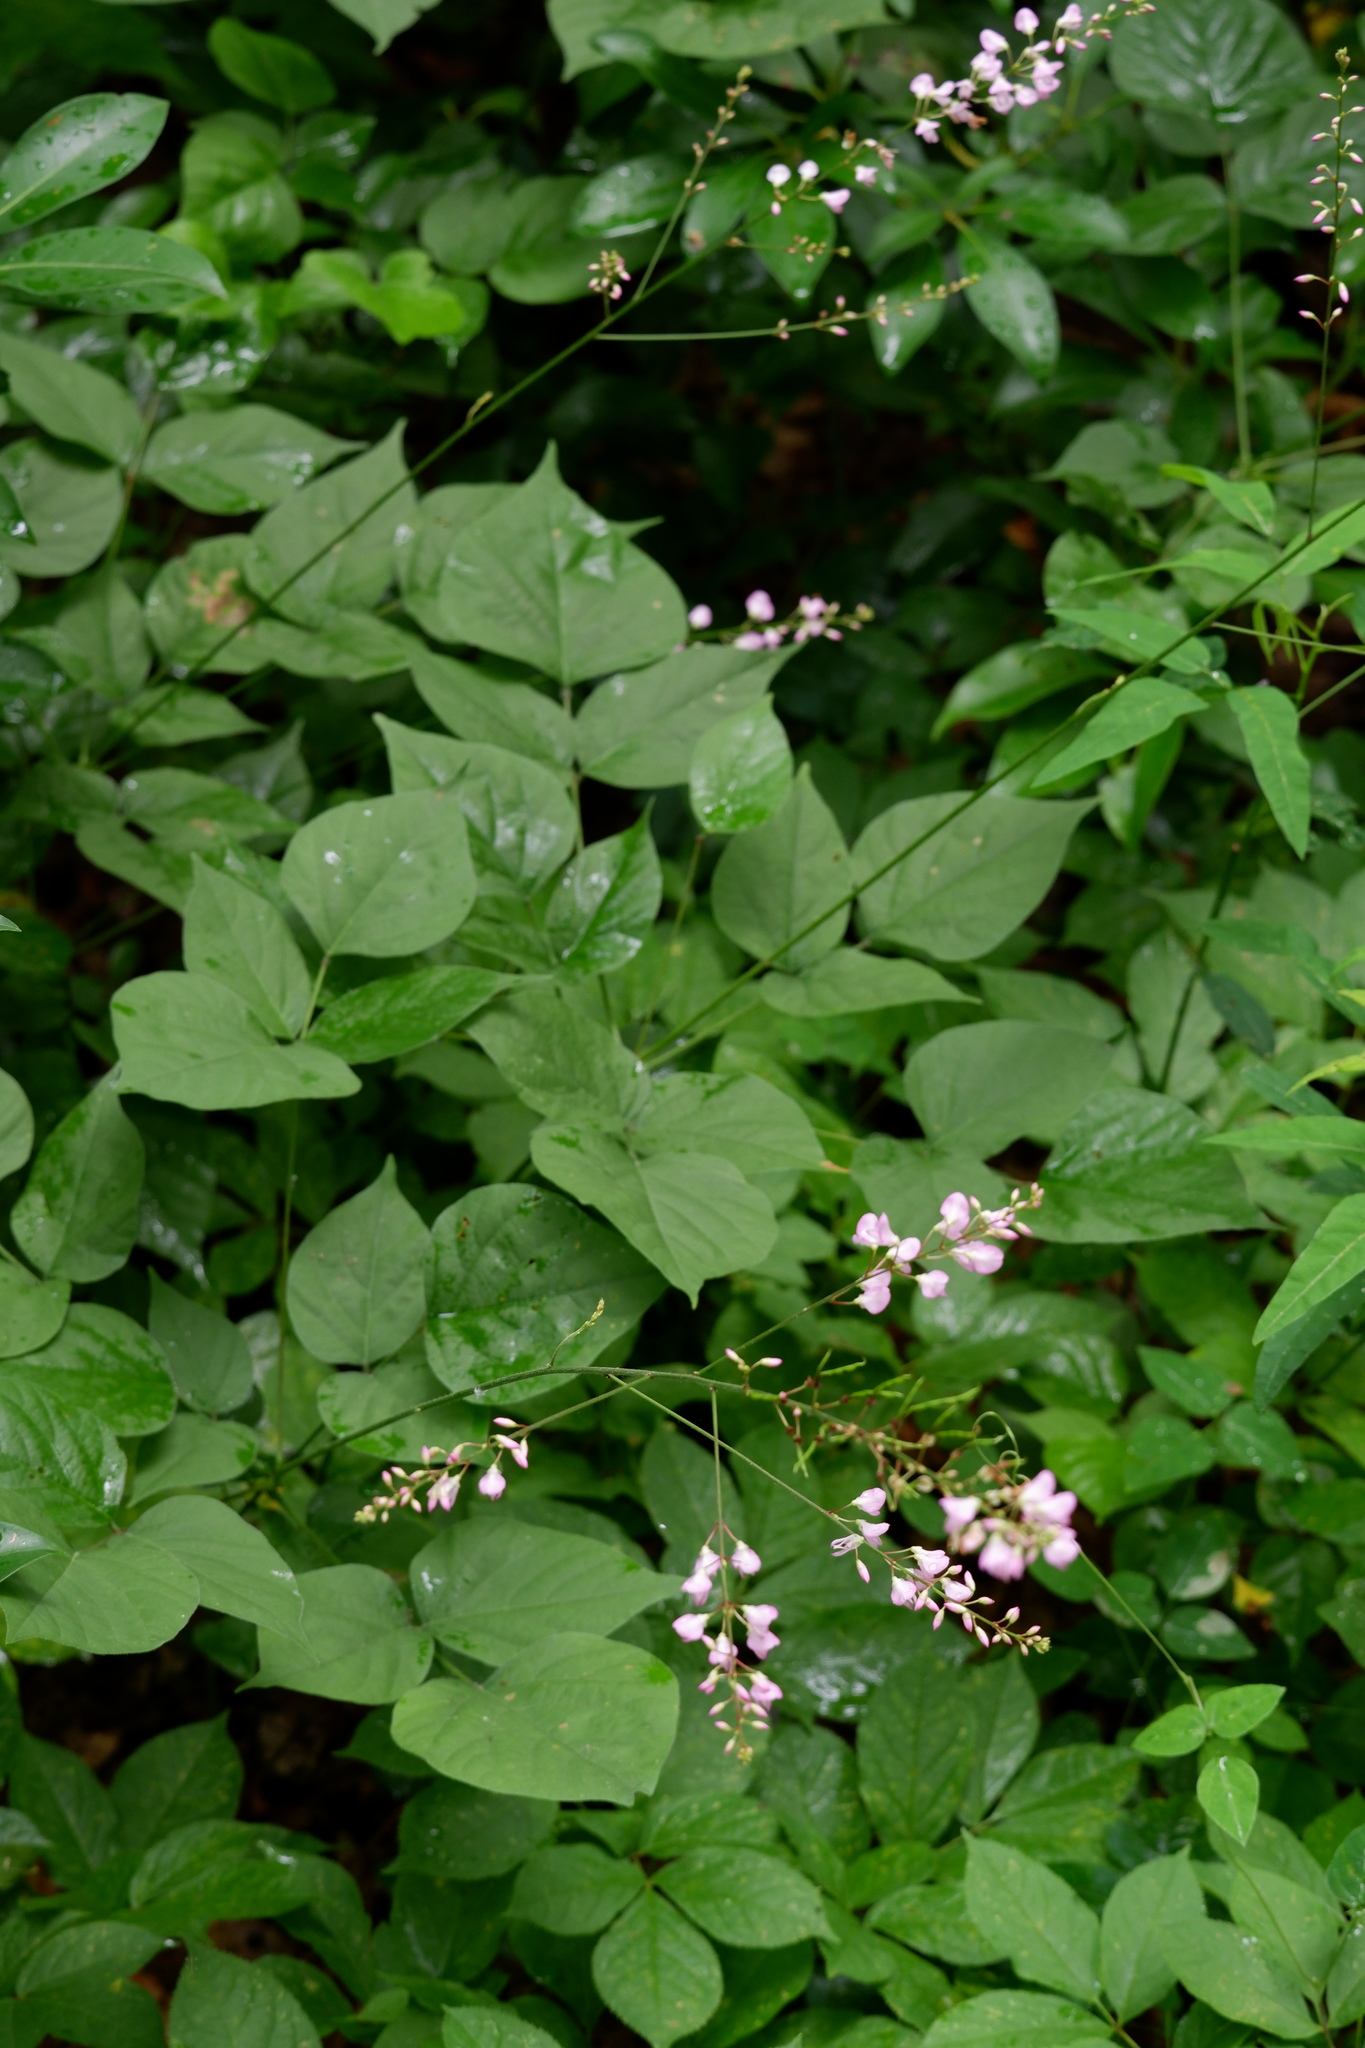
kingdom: Plantae
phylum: Tracheophyta
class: Magnoliopsida
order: Fabales
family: Fabaceae
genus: Hylodesmum
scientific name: Hylodesmum glutinosum
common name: Clustered-leaved tick-trefoil
